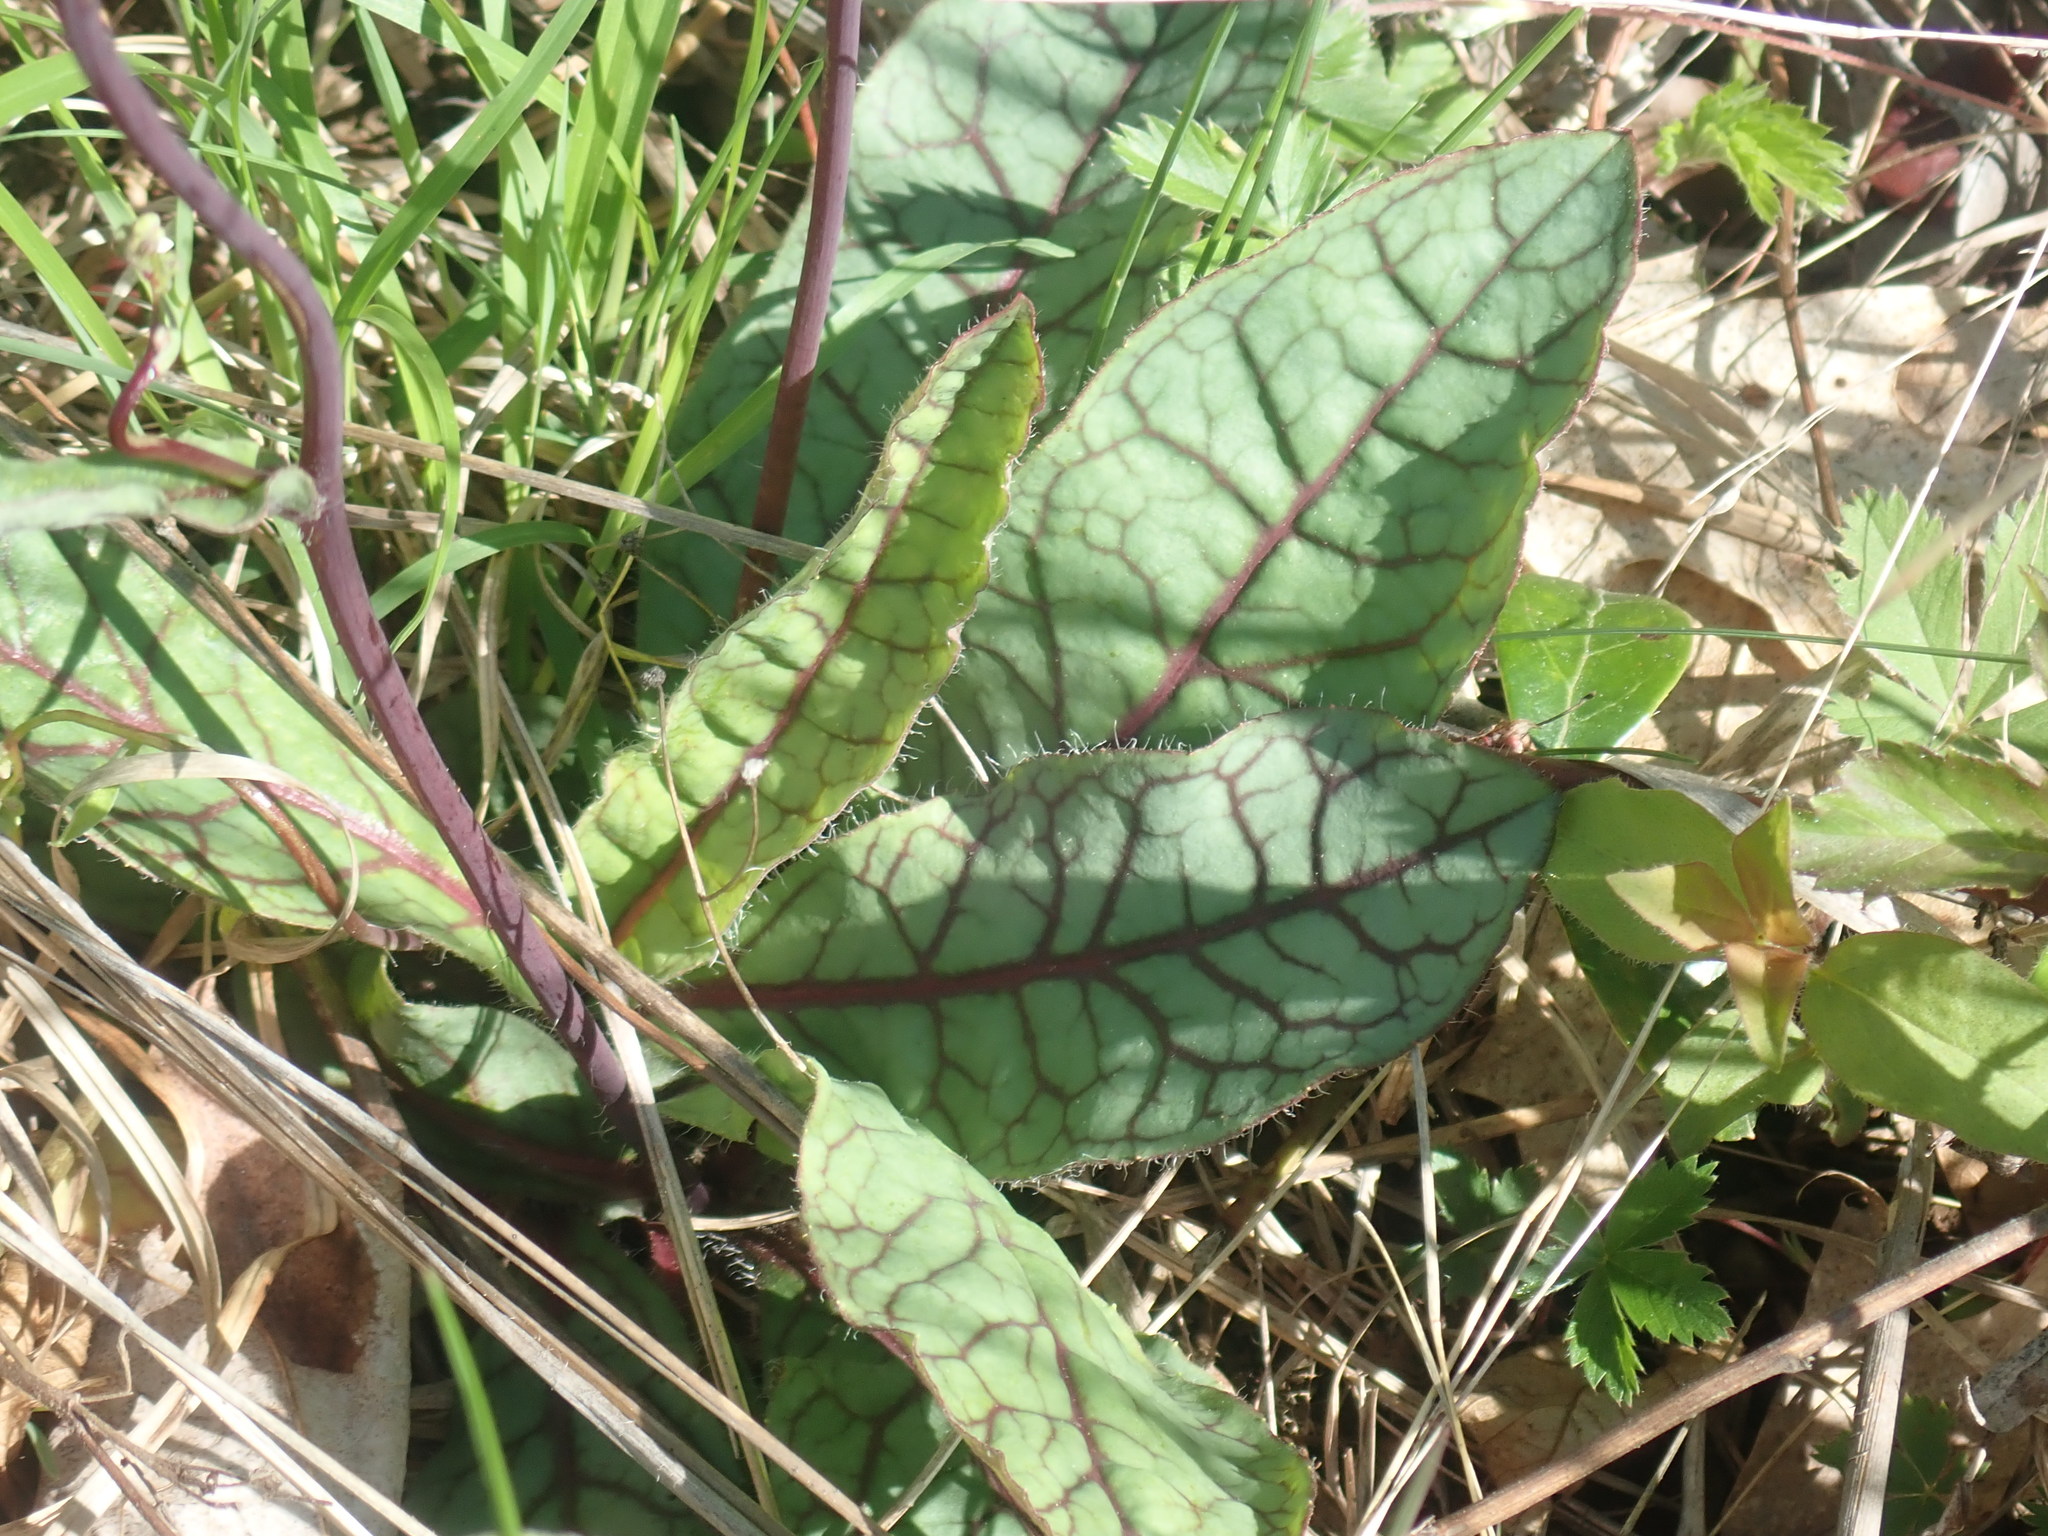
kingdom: Plantae
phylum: Tracheophyta
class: Magnoliopsida
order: Asterales
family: Asteraceae
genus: Hieracium
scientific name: Hieracium venosum
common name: Rattlesnake hawkweed
